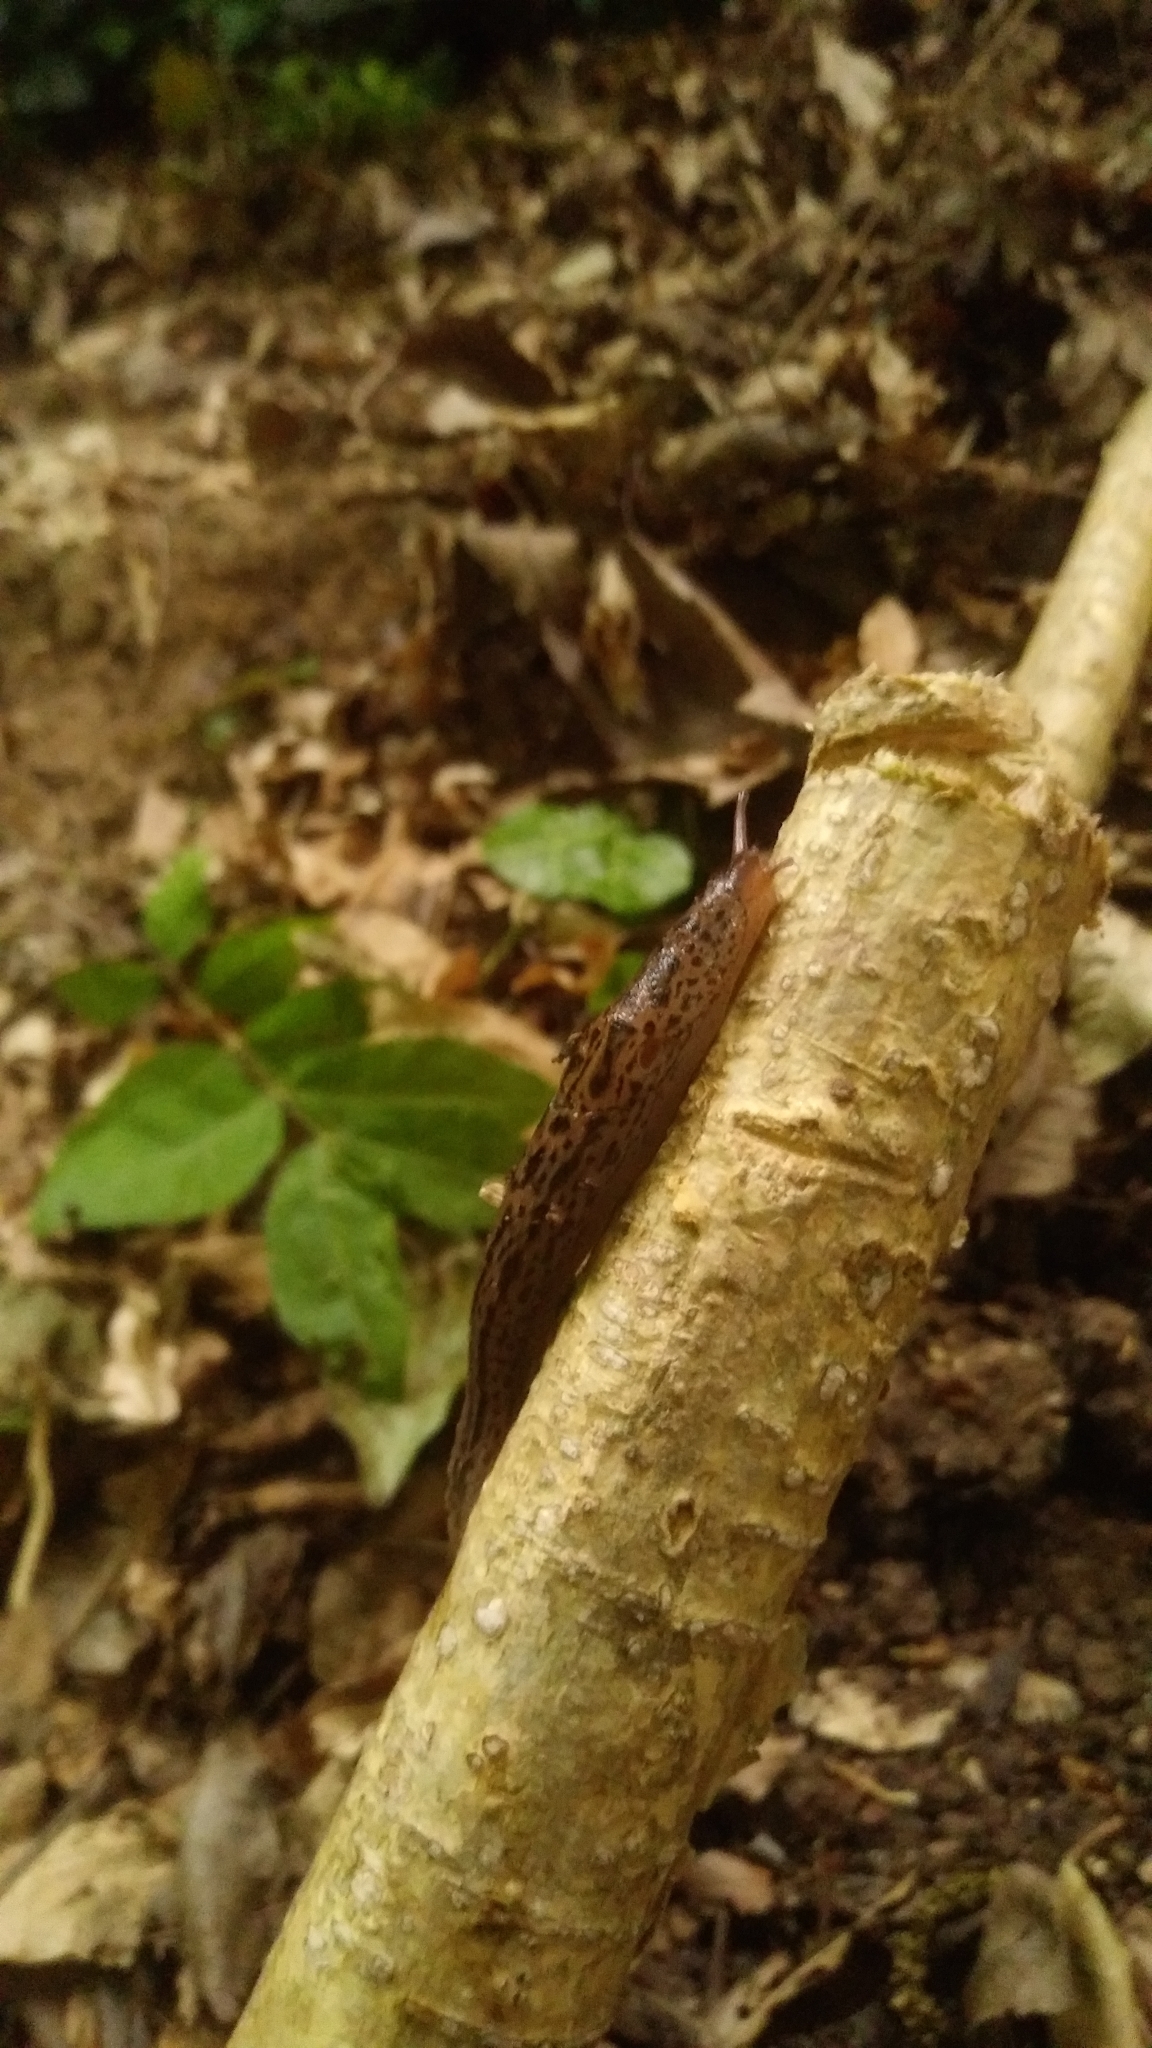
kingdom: Animalia
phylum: Mollusca
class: Gastropoda
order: Stylommatophora
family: Limacidae
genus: Limax
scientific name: Limax maximus
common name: Great grey slug
